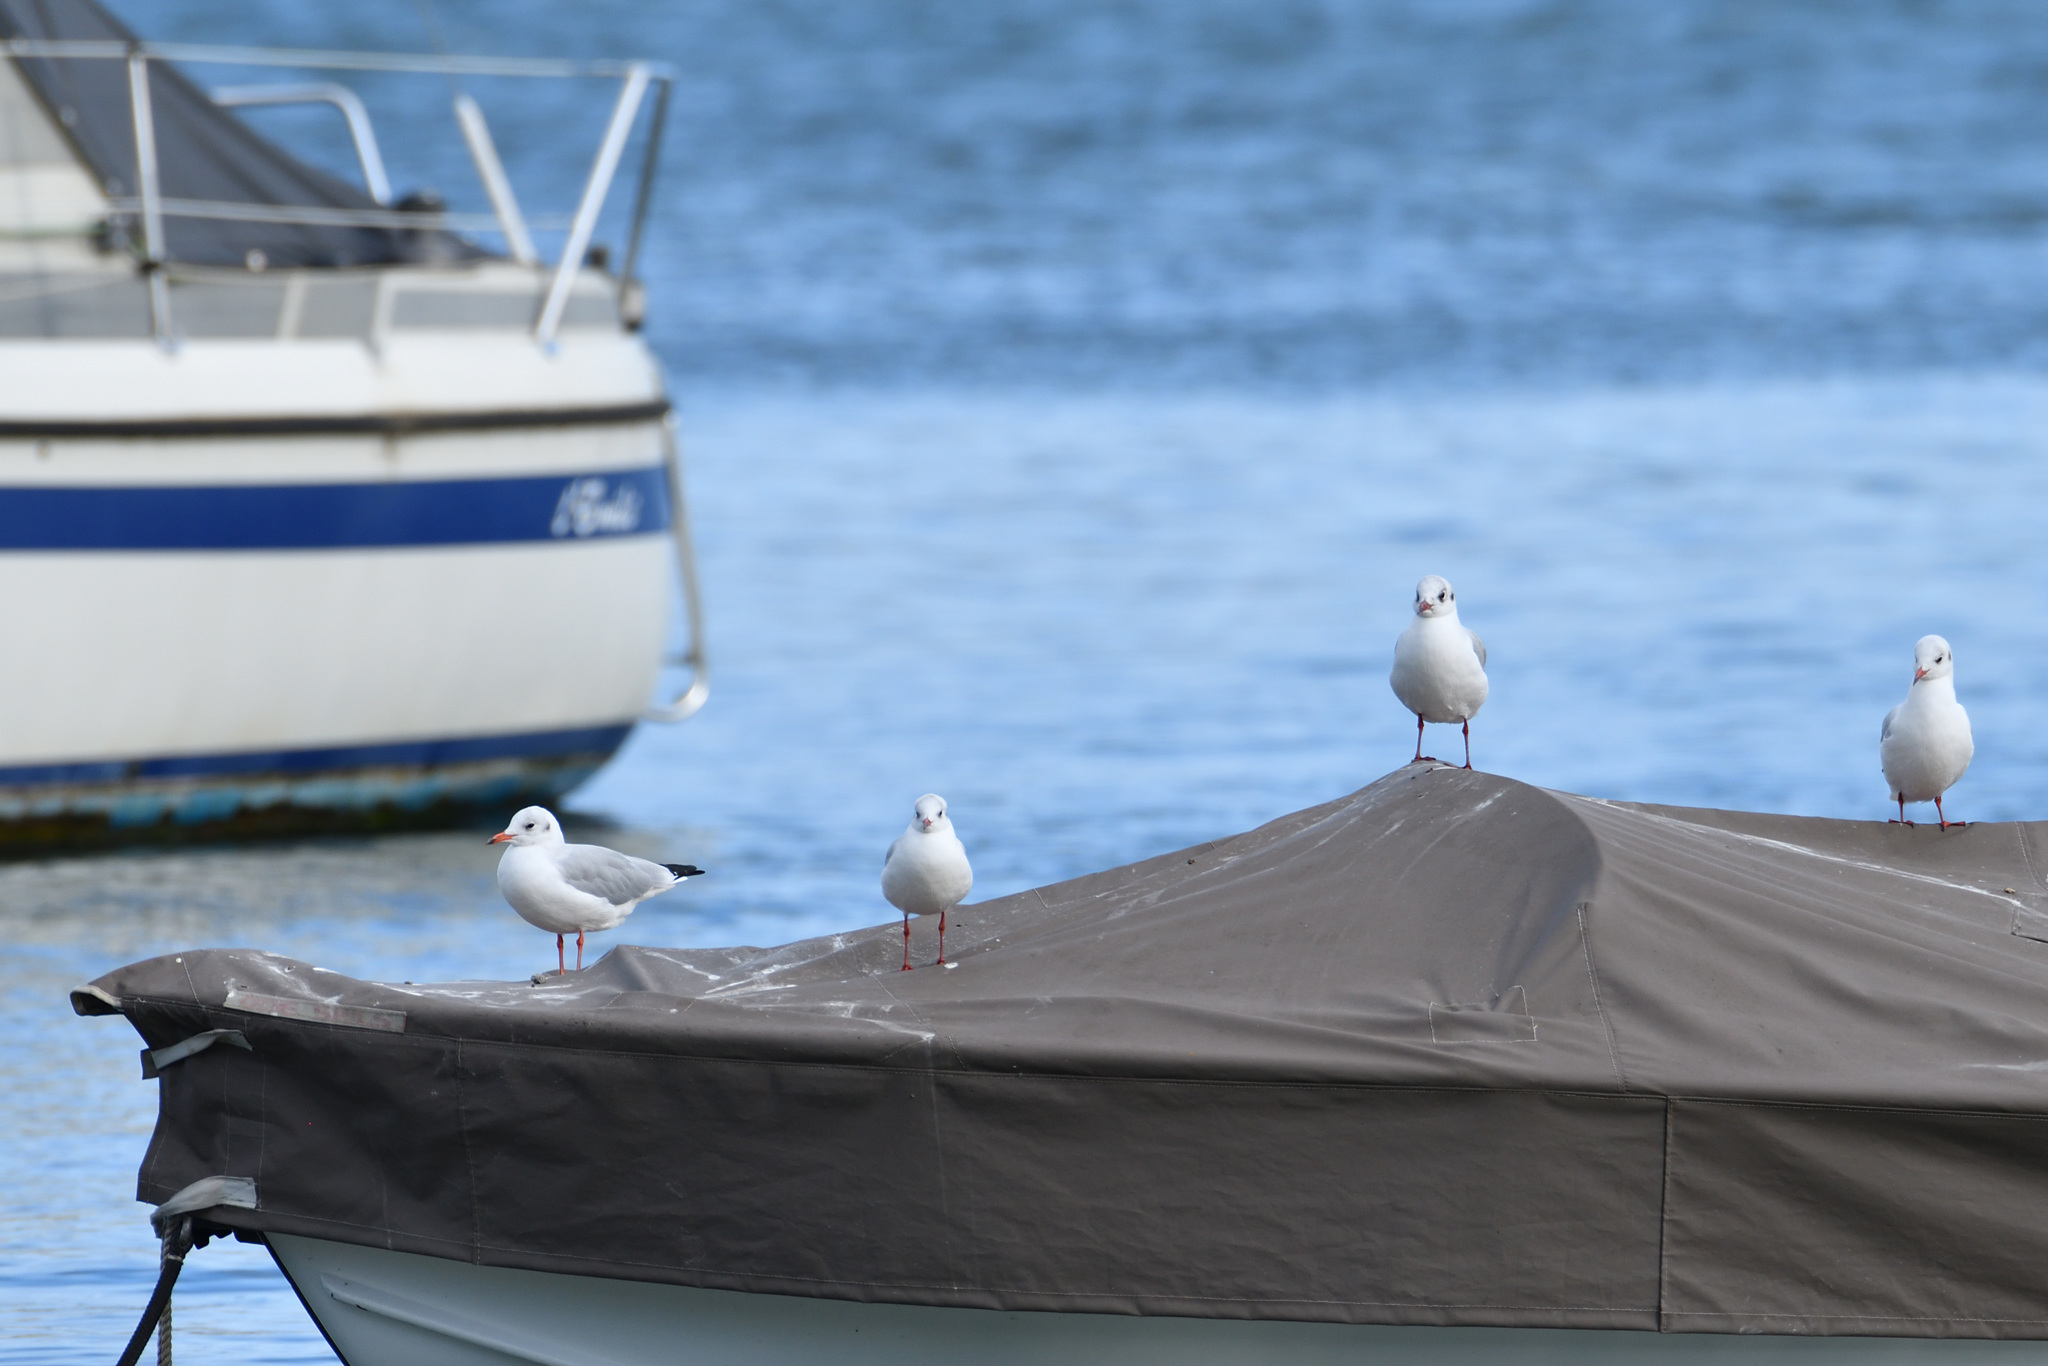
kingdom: Animalia
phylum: Chordata
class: Aves
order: Charadriiformes
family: Laridae
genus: Chroicocephalus
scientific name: Chroicocephalus ridibundus
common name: Black-headed gull
